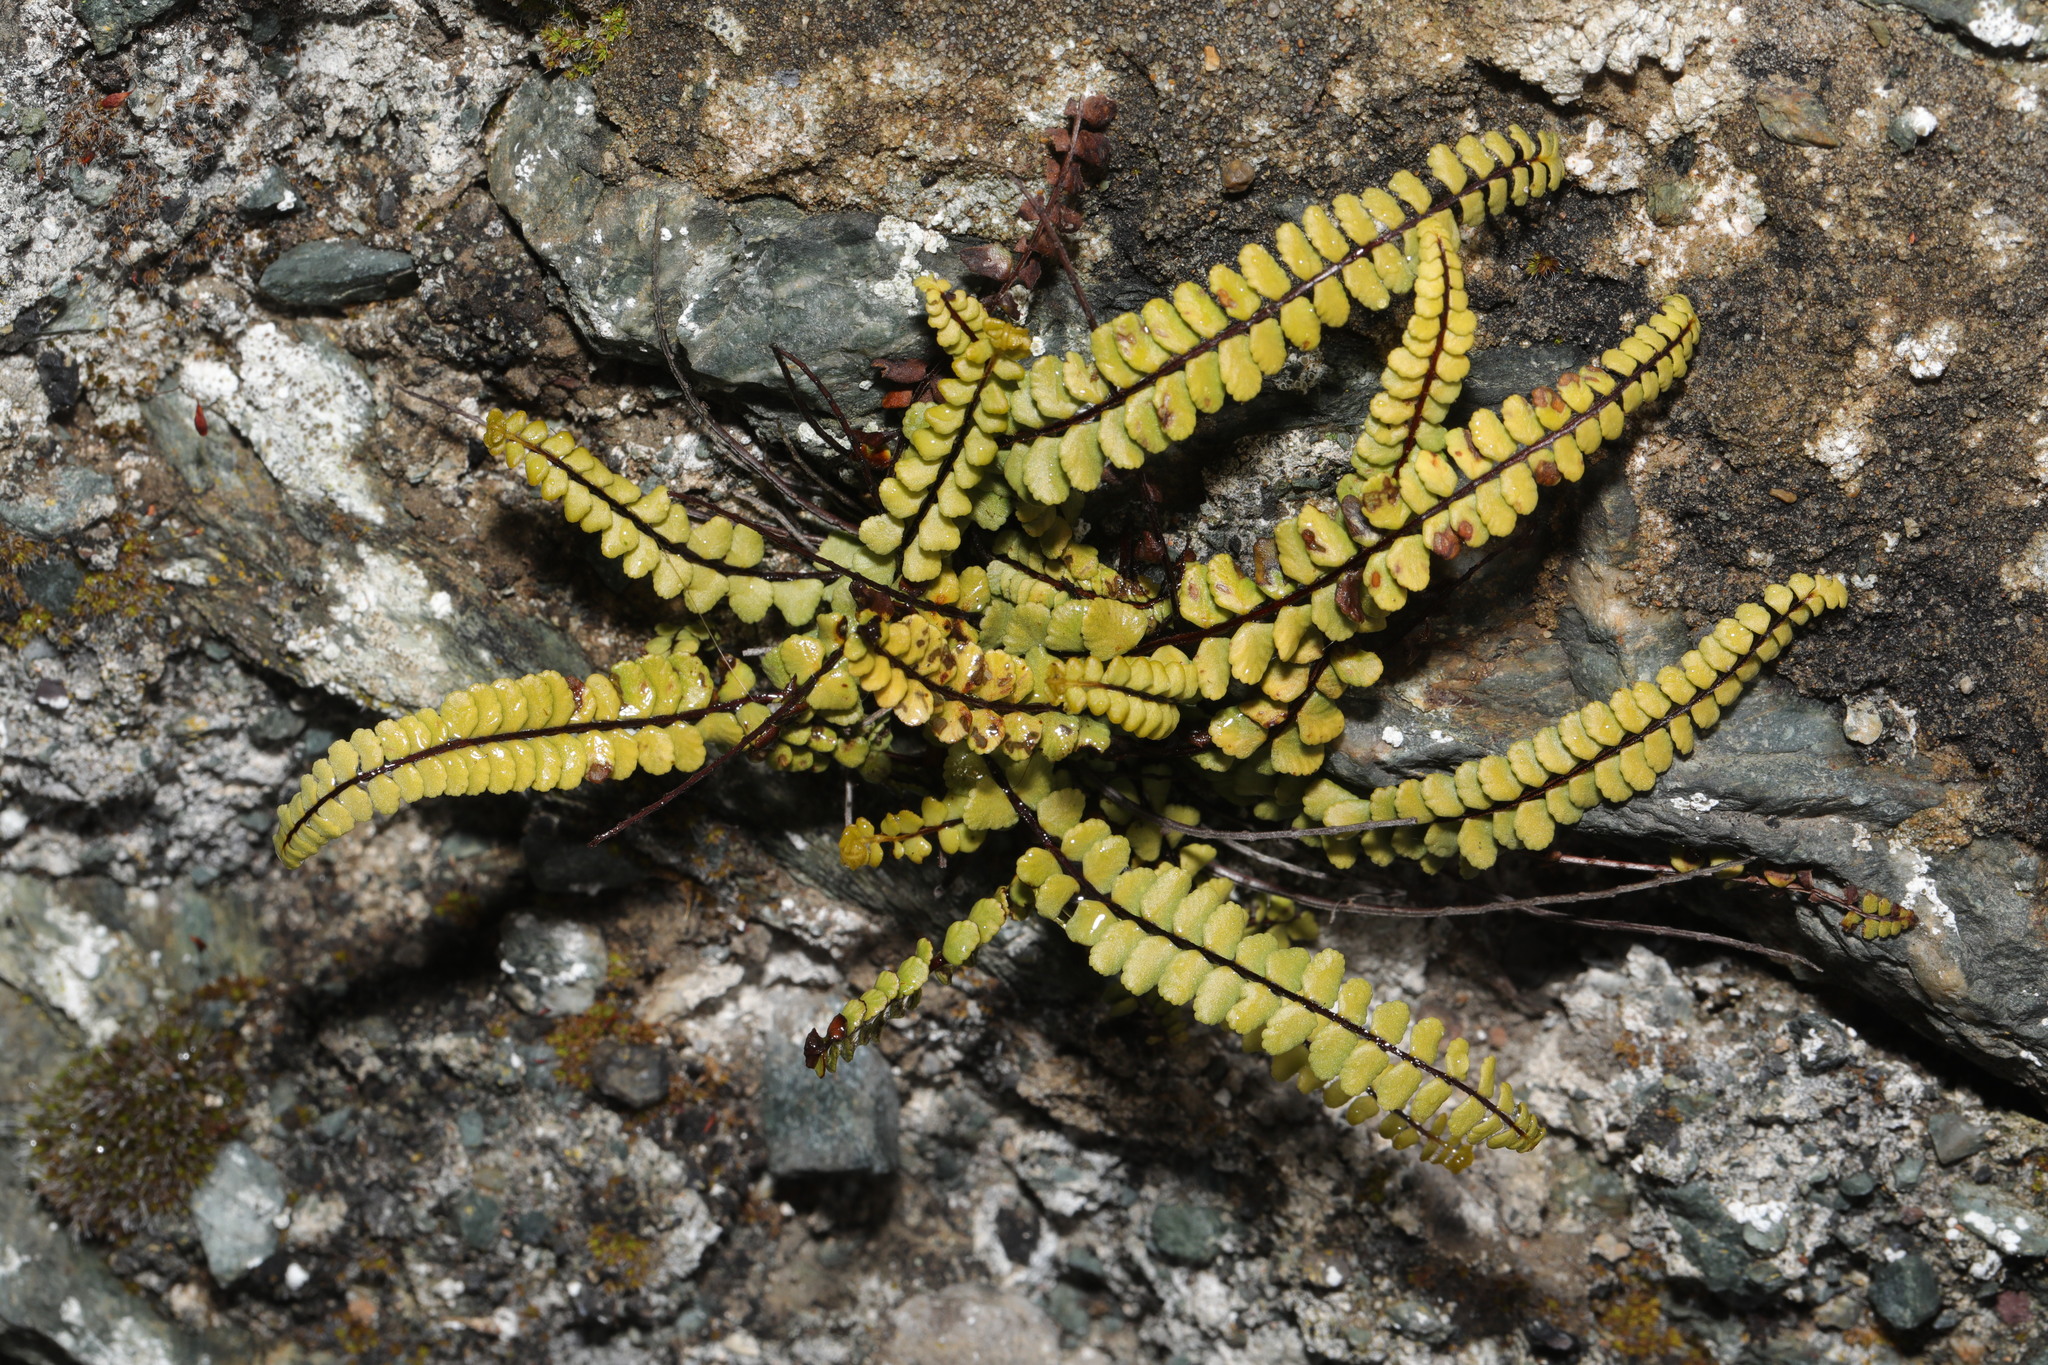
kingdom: Plantae
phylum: Tracheophyta
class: Polypodiopsida
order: Polypodiales
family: Aspleniaceae
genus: Asplenium
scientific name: Asplenium trichomanes
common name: Maidenhair spleenwort
